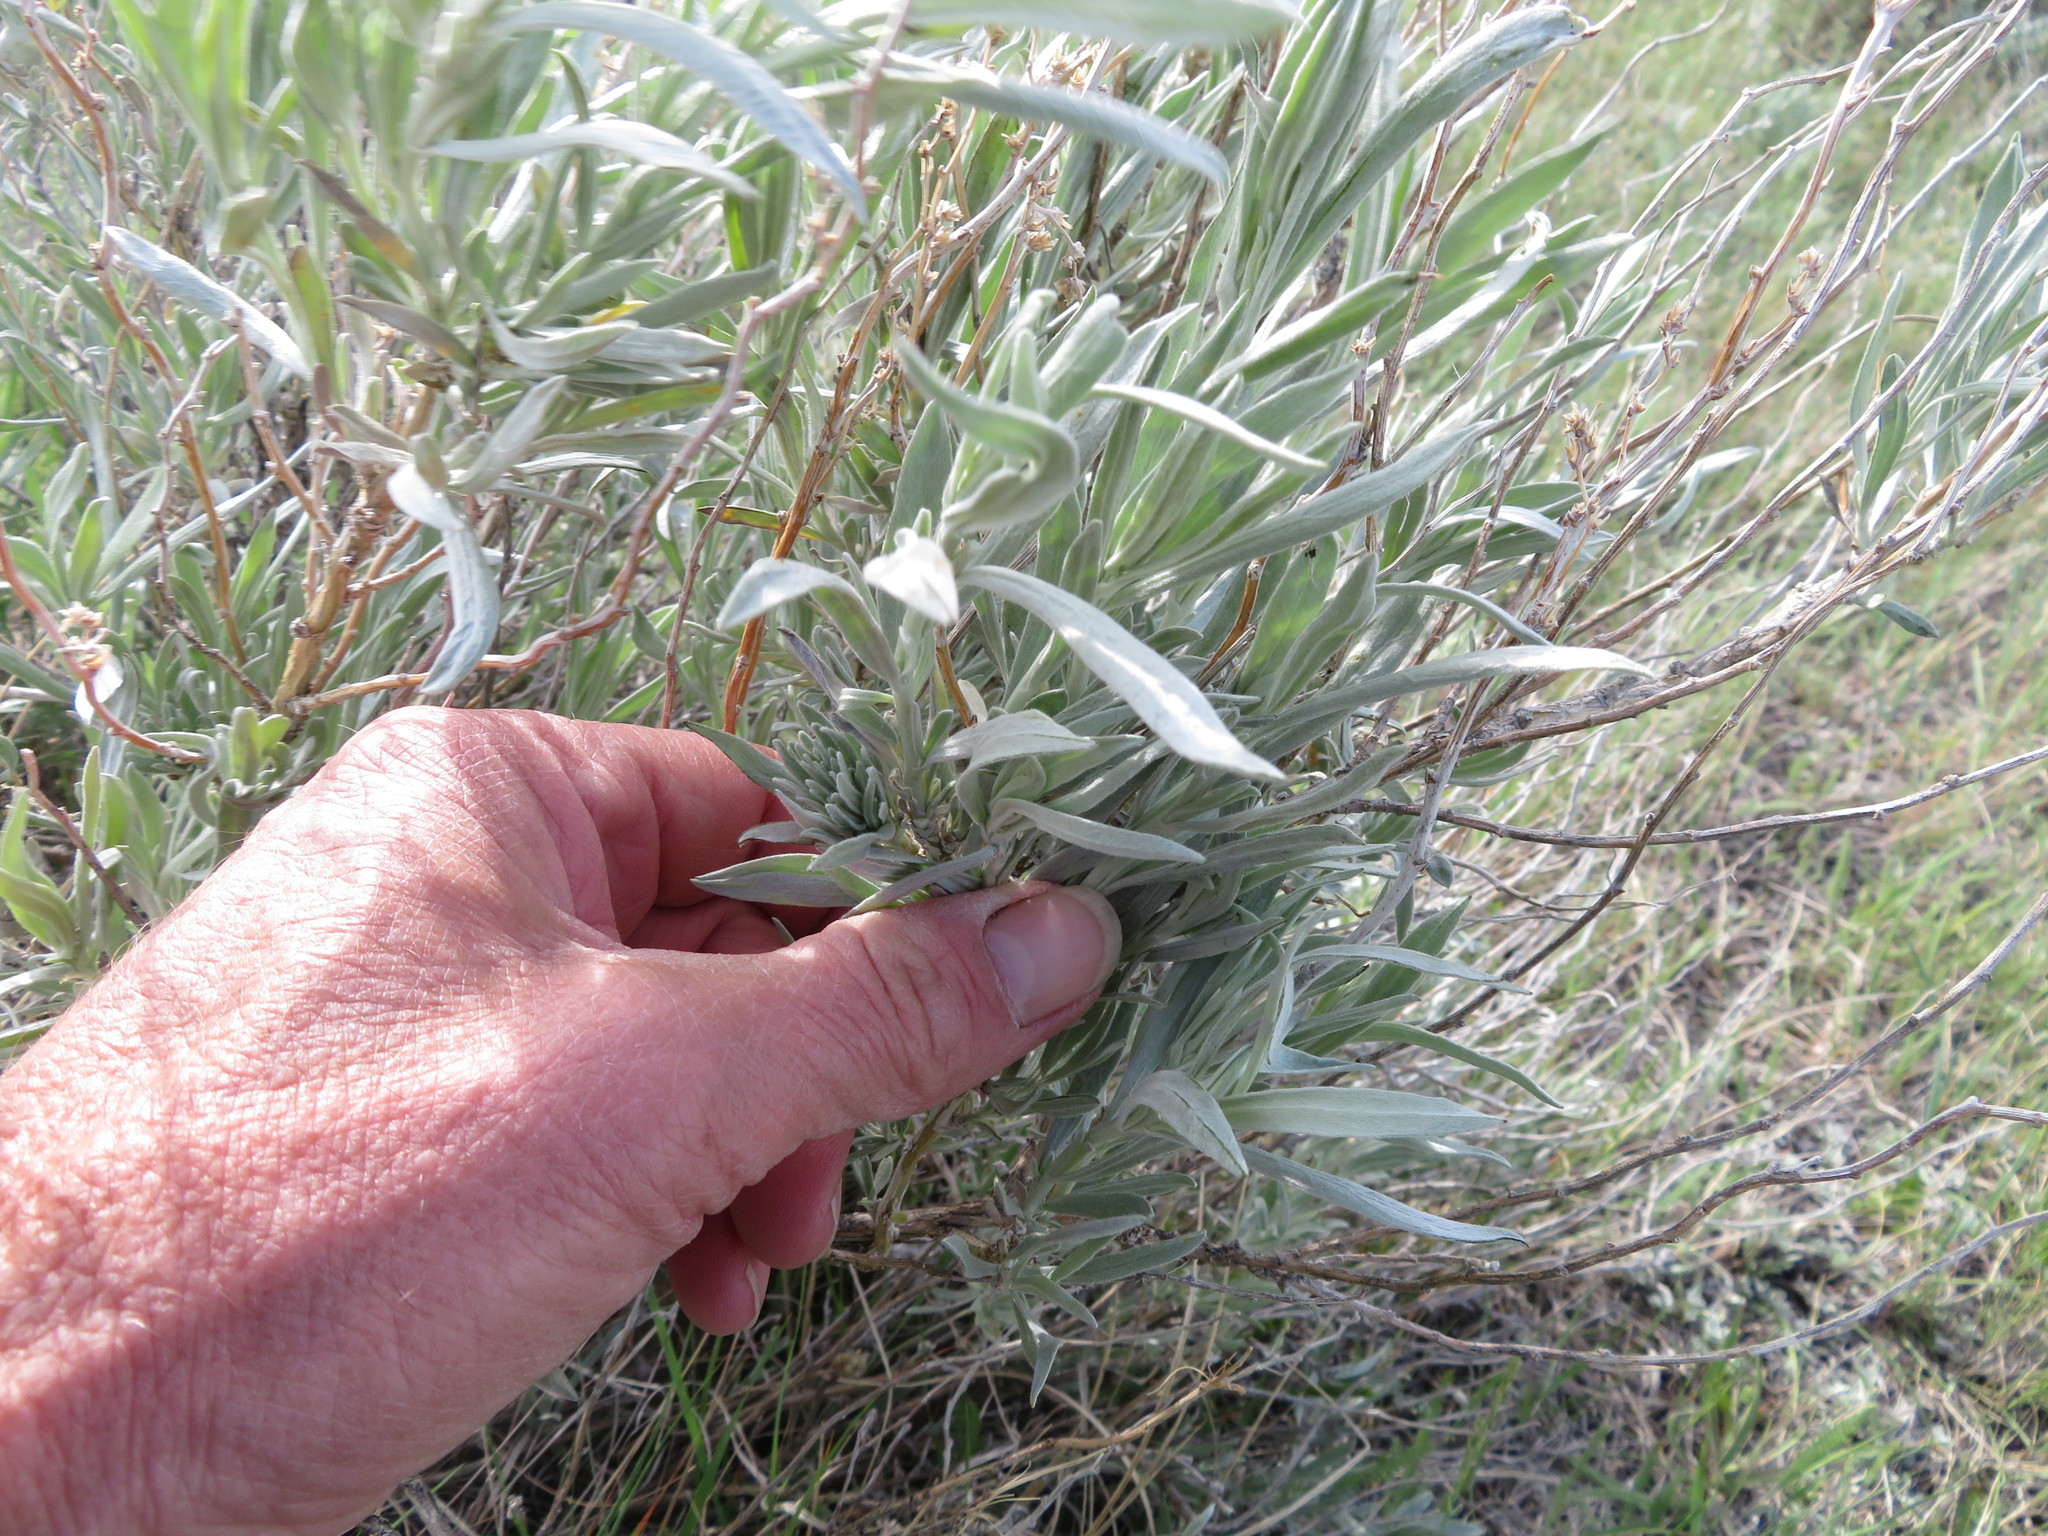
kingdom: Plantae
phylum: Tracheophyta
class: Magnoliopsida
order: Asterales
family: Asteraceae
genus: Artemisia
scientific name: Artemisia cana
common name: Silver sagebrush
